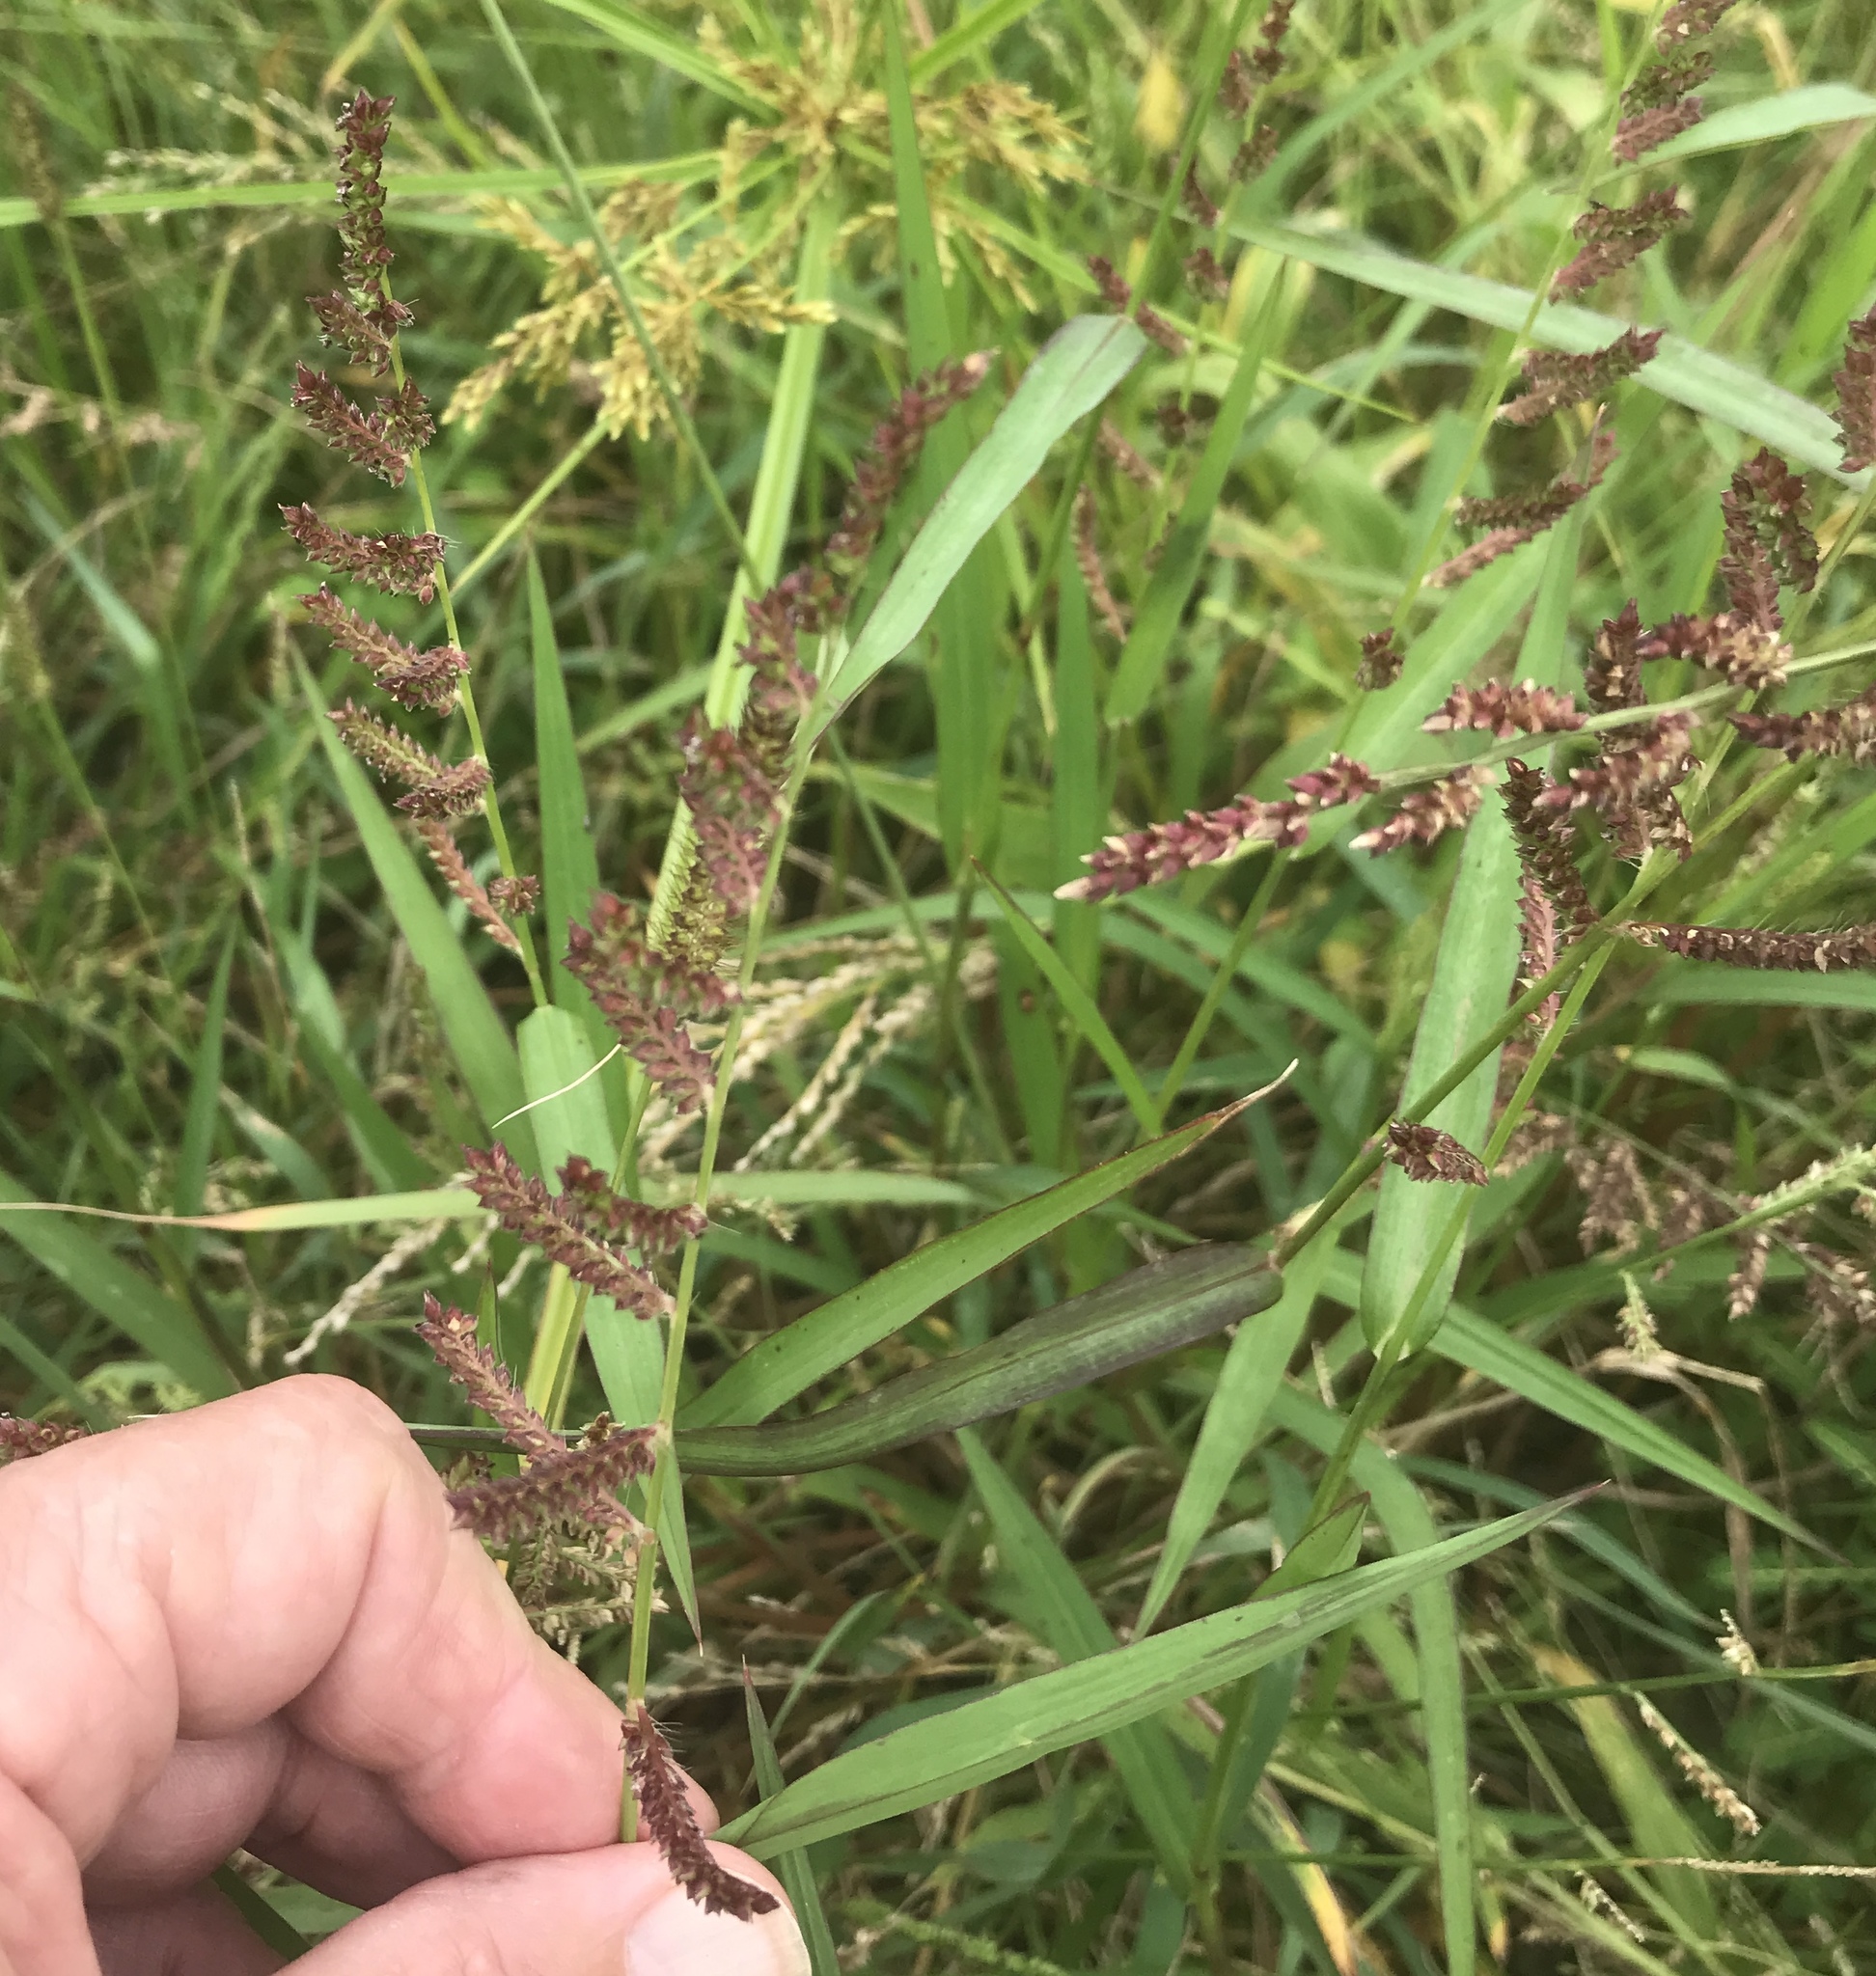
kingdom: Plantae
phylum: Tracheophyta
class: Liliopsida
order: Poales
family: Poaceae
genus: Echinochloa
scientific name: Echinochloa colonum
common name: Jungle rice
